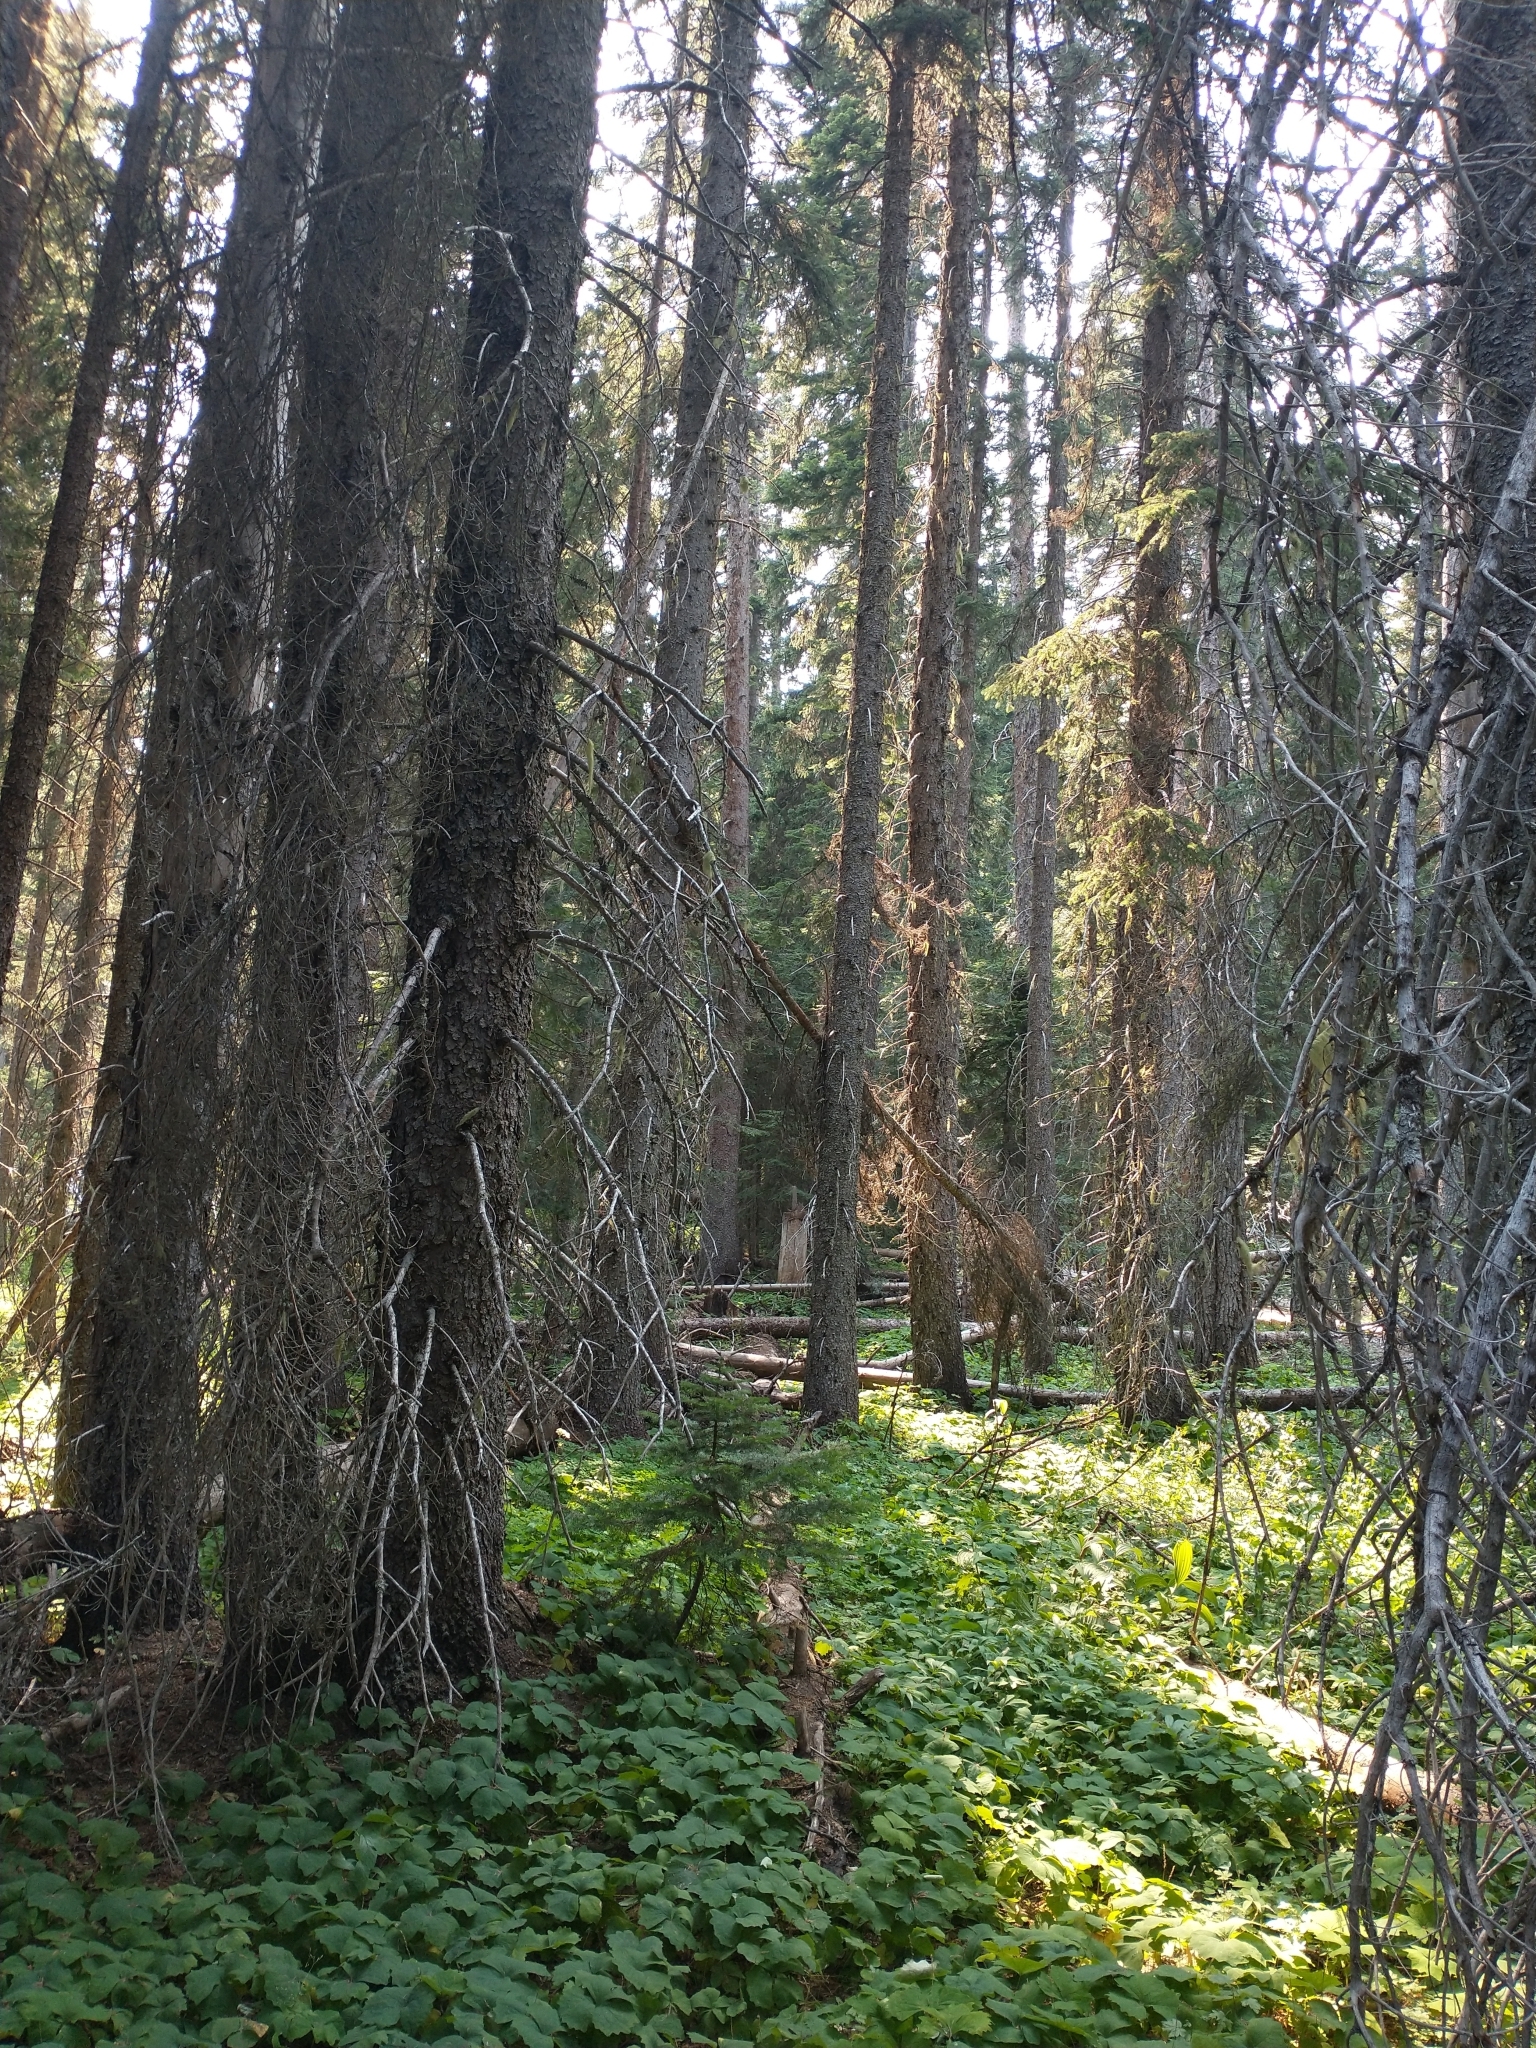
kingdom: Plantae
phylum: Tracheophyta
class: Pinopsida
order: Pinales
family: Pinaceae
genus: Picea
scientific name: Picea engelmannii
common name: Engelmann spruce
